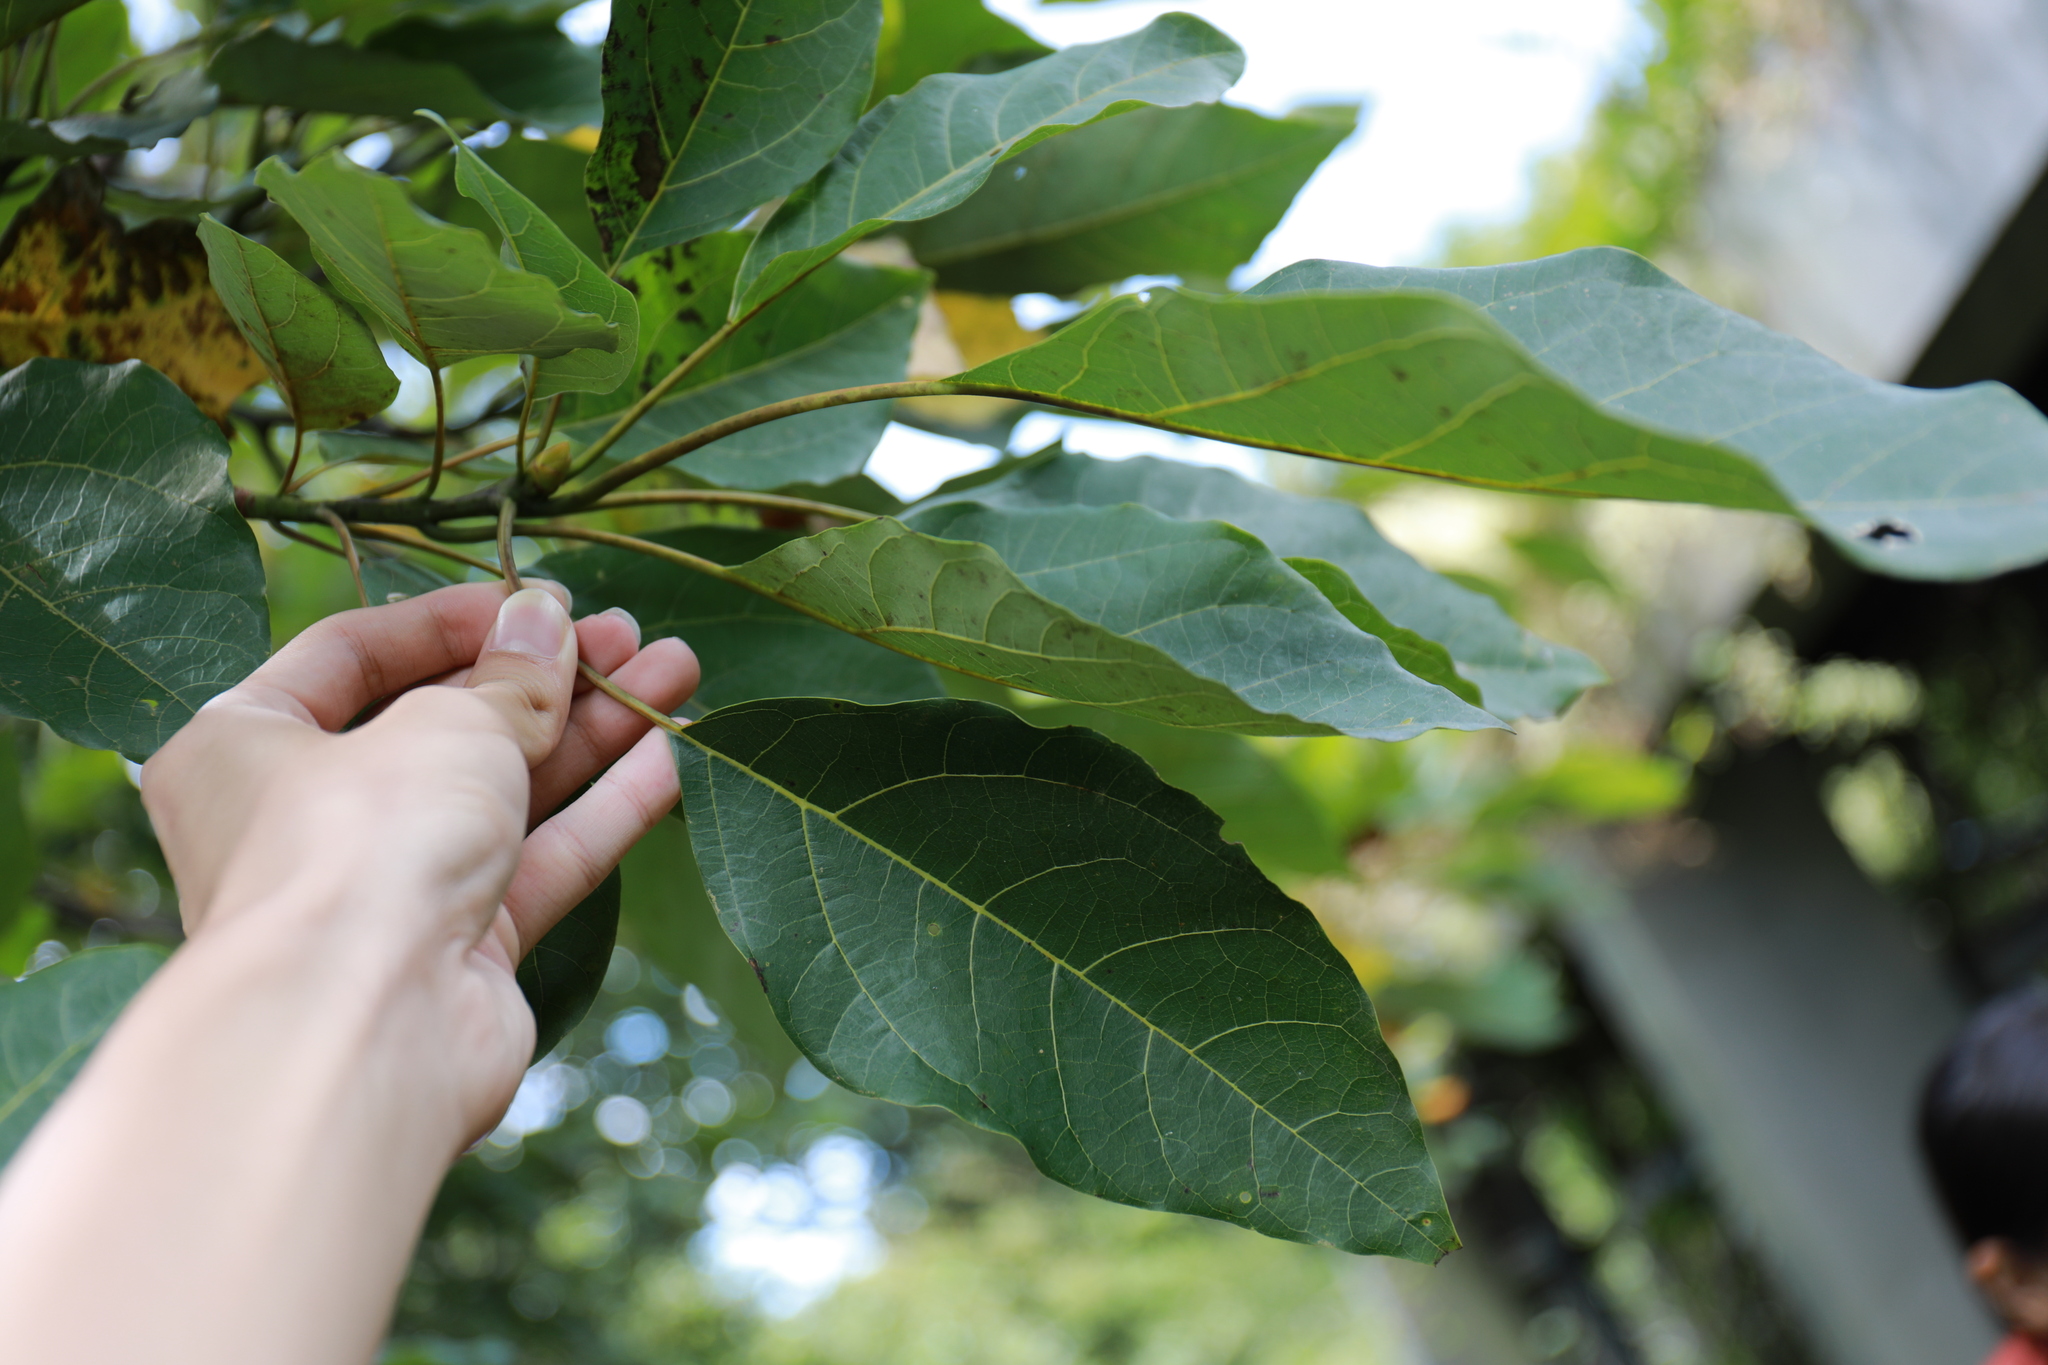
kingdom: Plantae
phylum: Tracheophyta
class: Magnoliopsida
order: Laurales
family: Lauraceae
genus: Sassafras
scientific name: Sassafras randaiense
